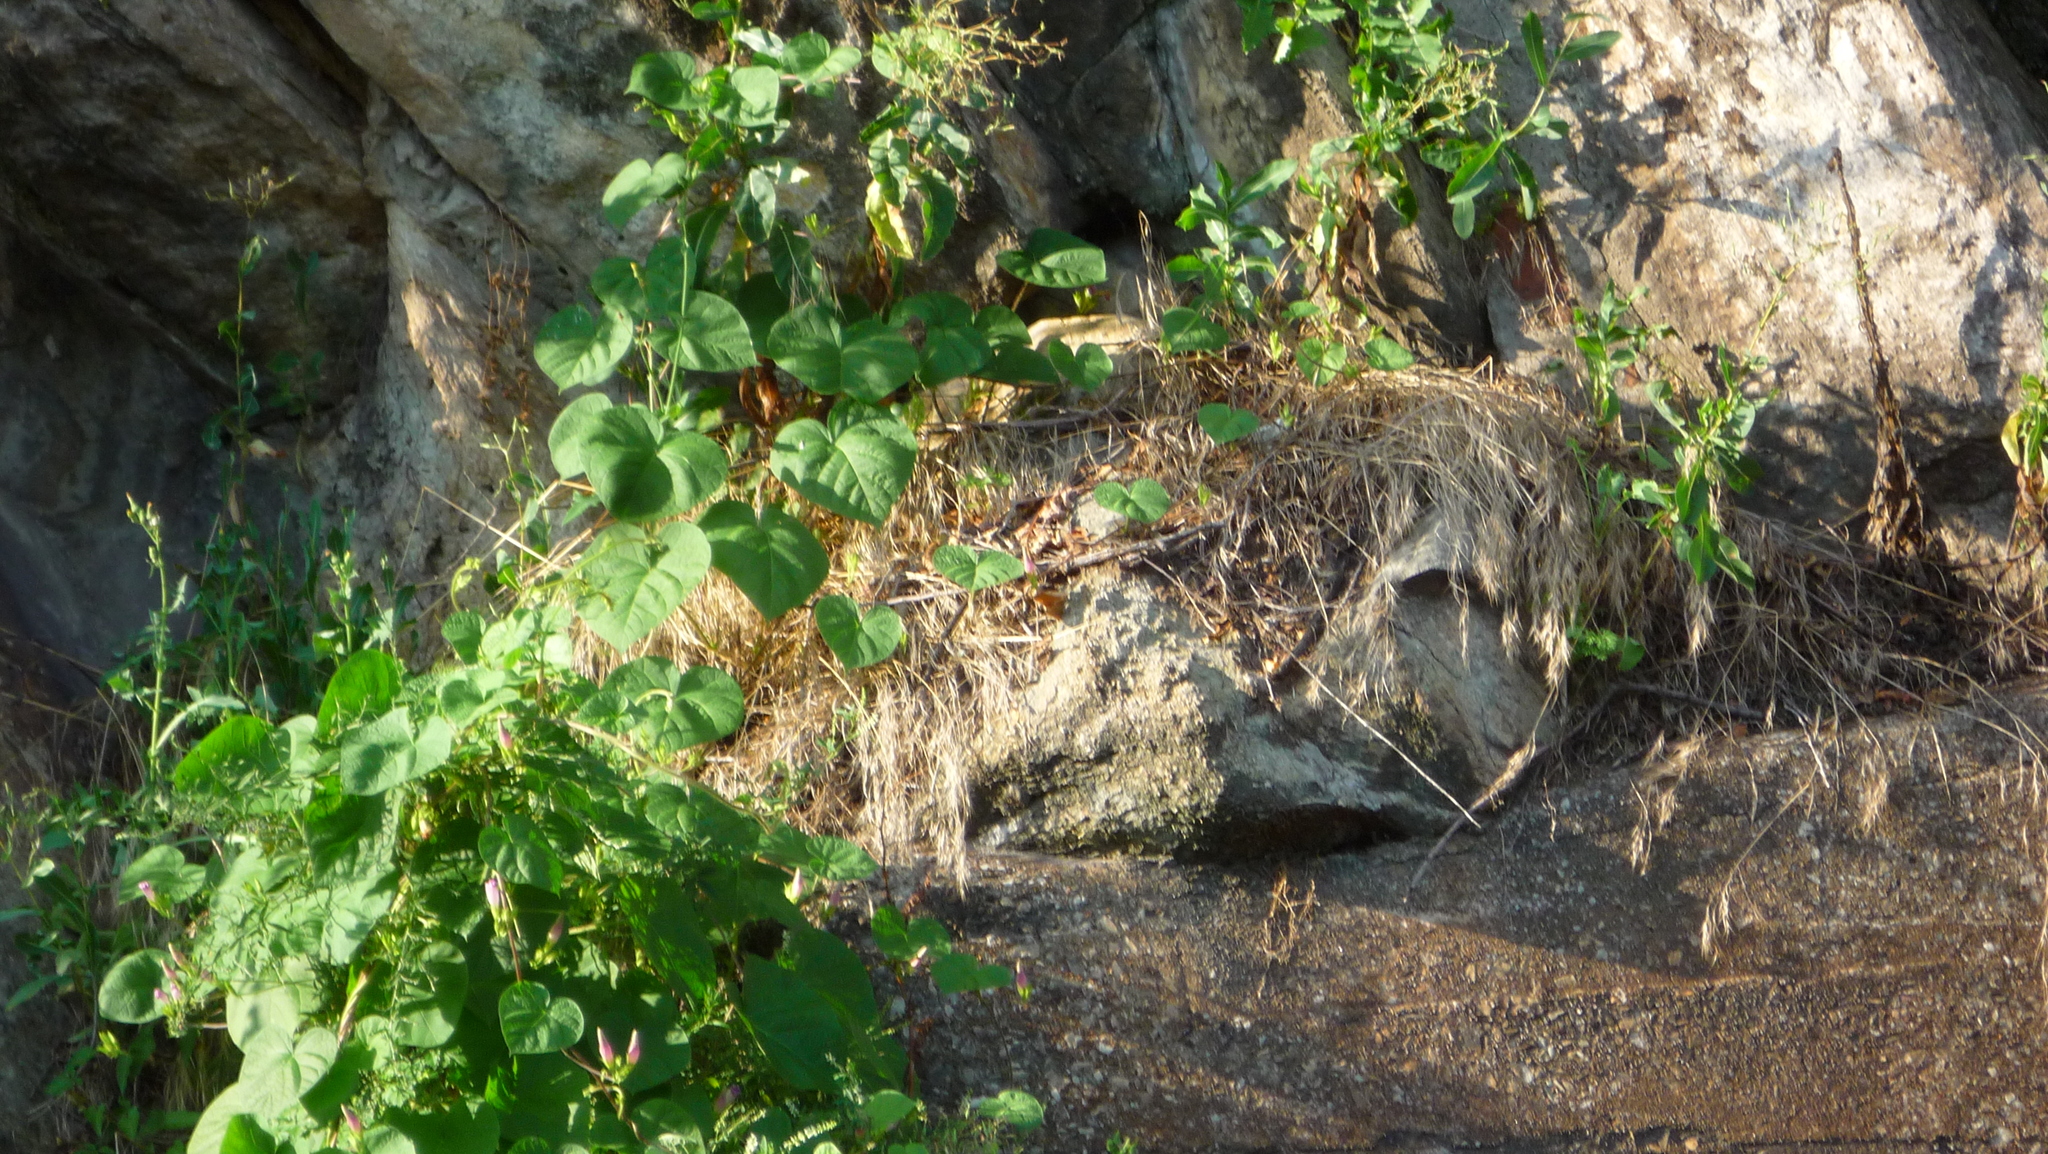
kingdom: Plantae
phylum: Tracheophyta
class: Magnoliopsida
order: Solanales
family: Convolvulaceae
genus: Ipomoea
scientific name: Ipomoea purpurea
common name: Common morning-glory
